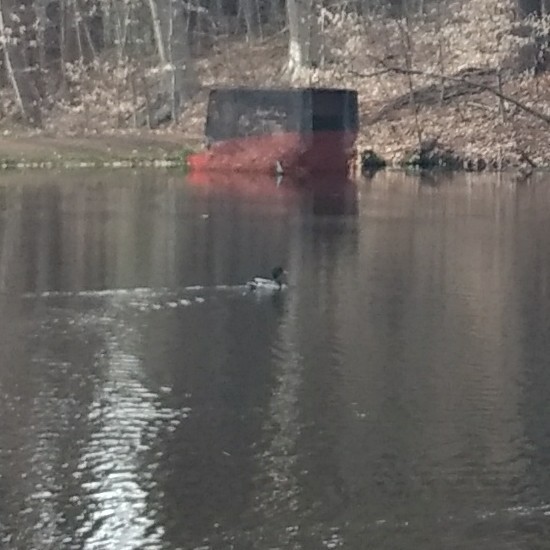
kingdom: Animalia
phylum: Chordata
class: Aves
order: Anseriformes
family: Anatidae
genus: Anas
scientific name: Anas platyrhynchos
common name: Mallard
